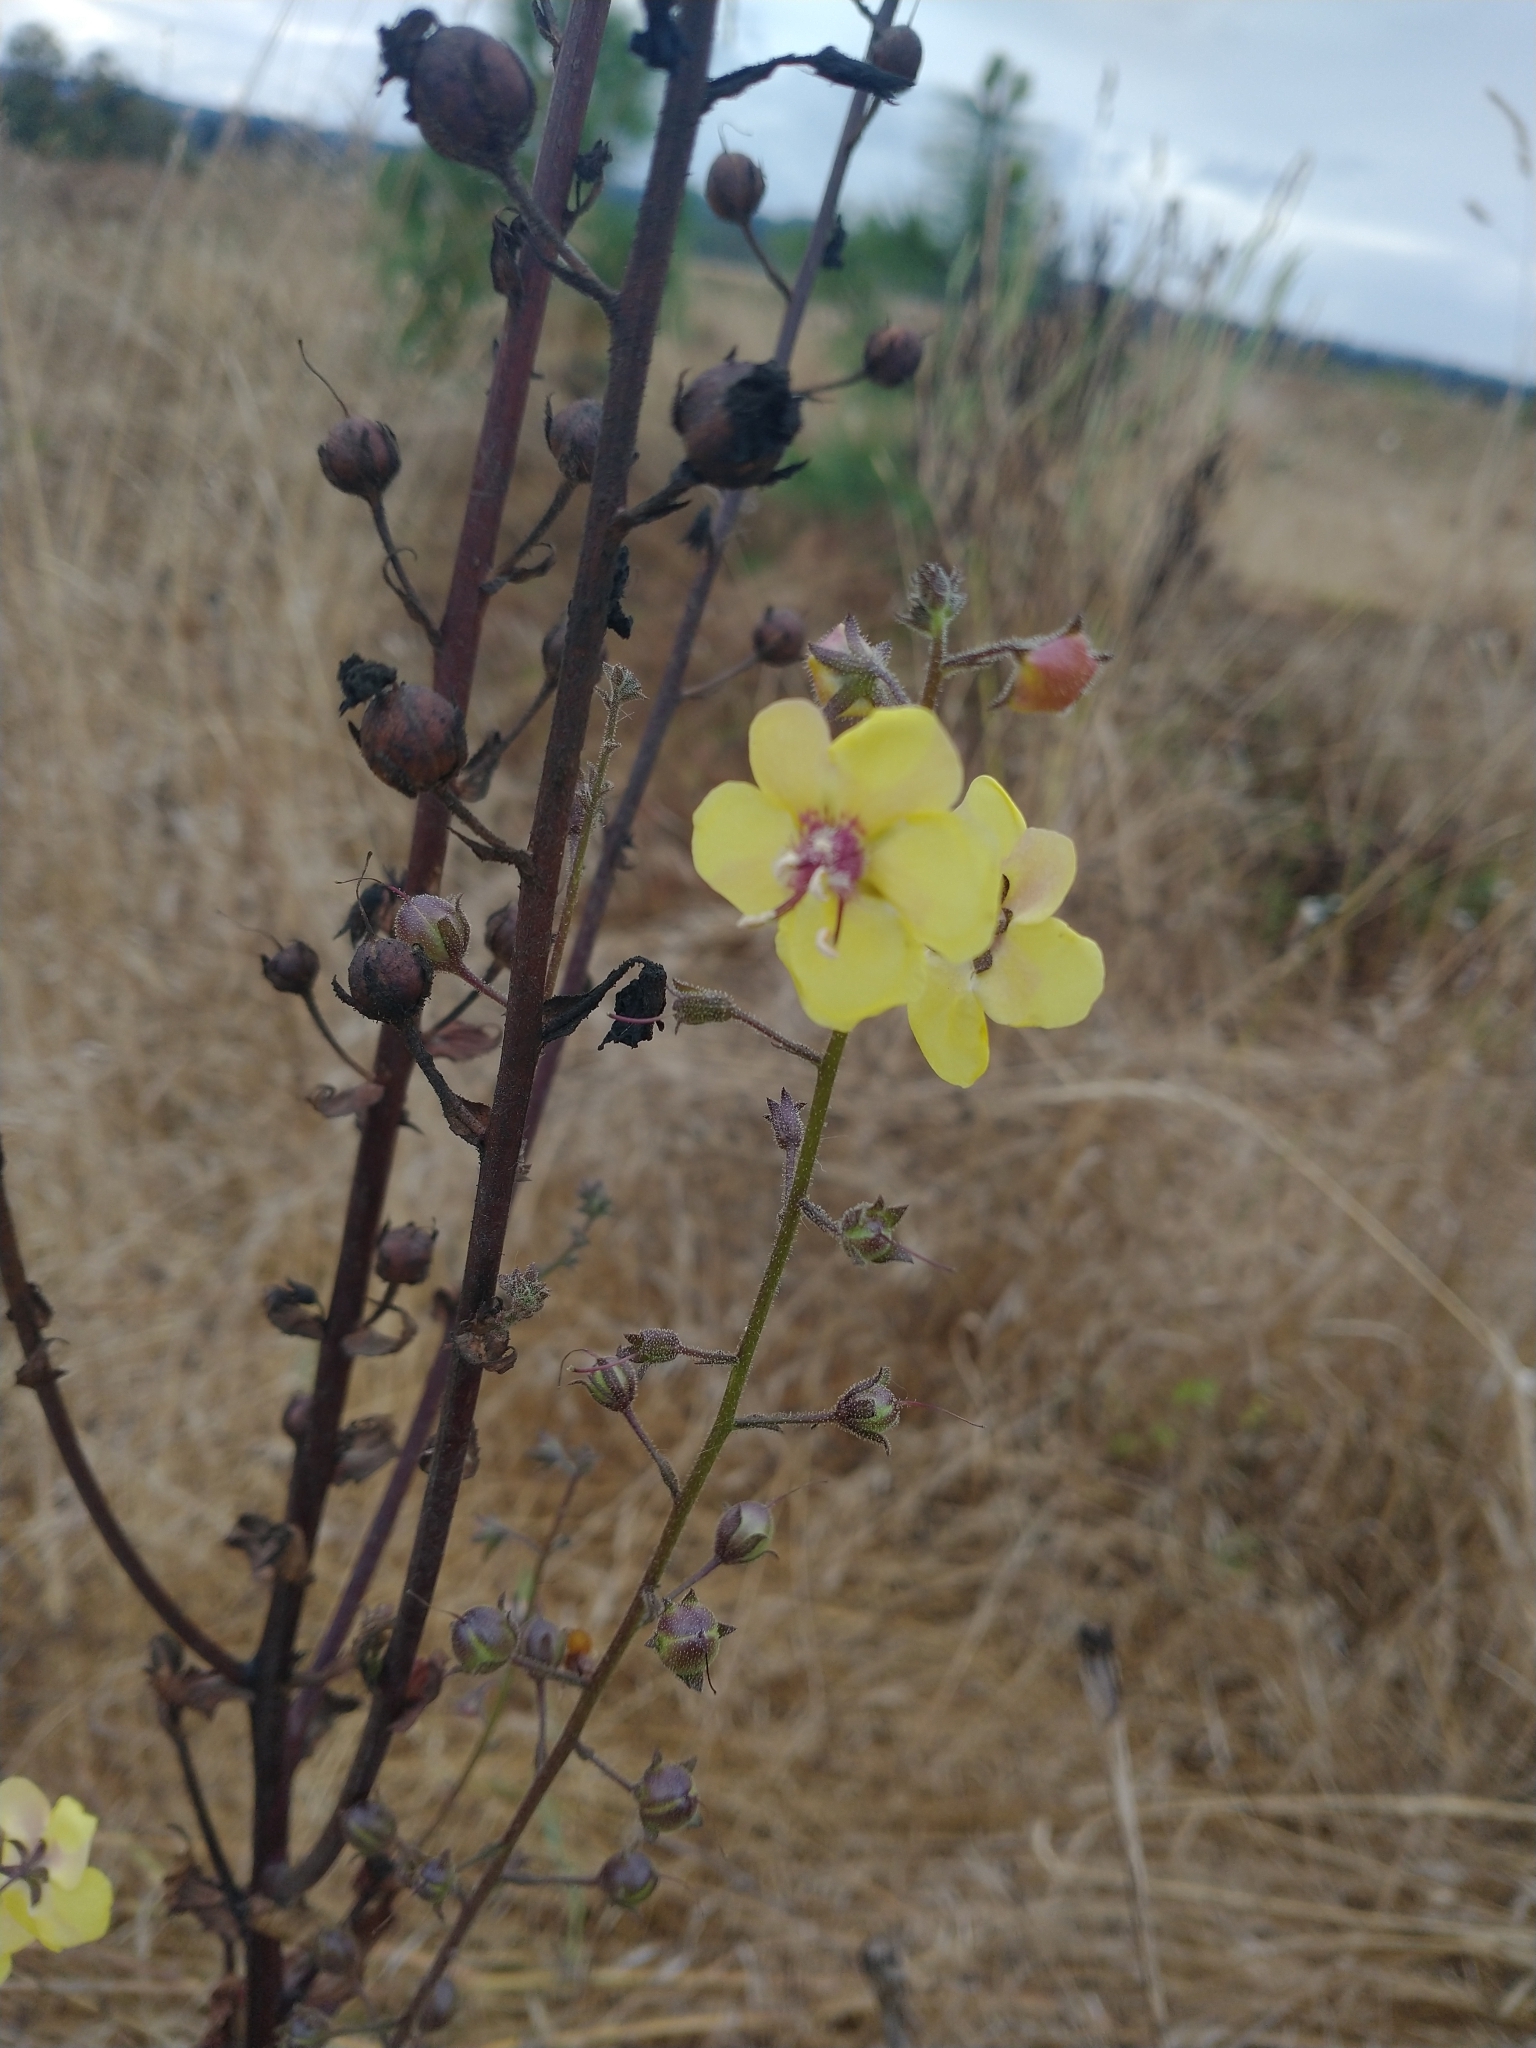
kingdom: Plantae
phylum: Tracheophyta
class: Magnoliopsida
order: Lamiales
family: Scrophulariaceae
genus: Verbascum
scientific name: Verbascum blattaria
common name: Moth mullein
